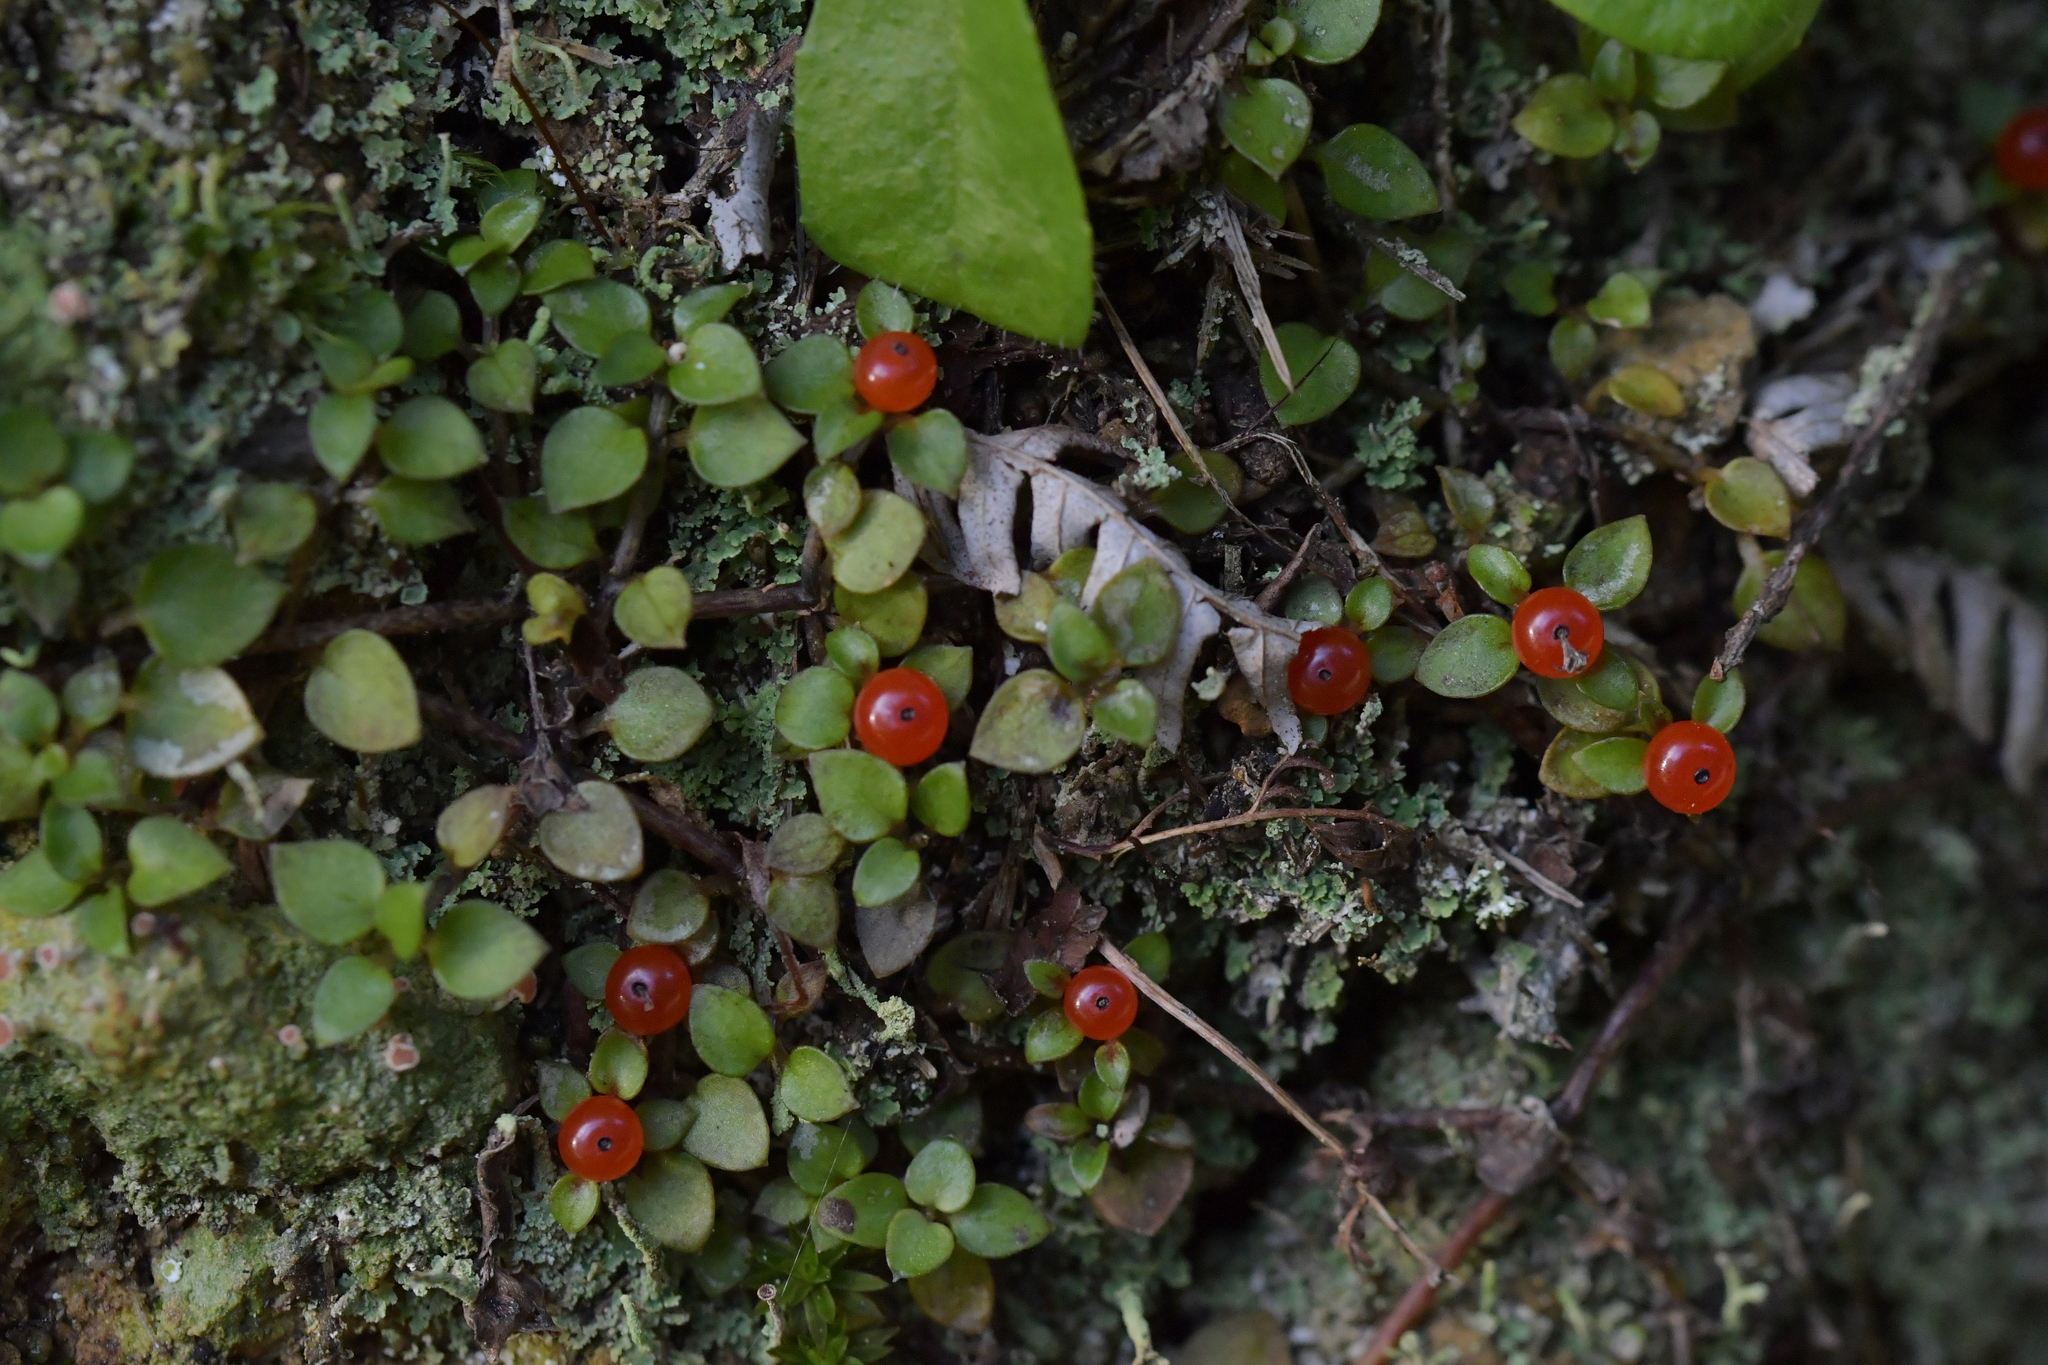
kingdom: Plantae
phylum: Tracheophyta
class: Magnoliopsida
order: Gentianales
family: Rubiaceae
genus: Nertera
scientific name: Nertera granadensis
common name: Beadplant
